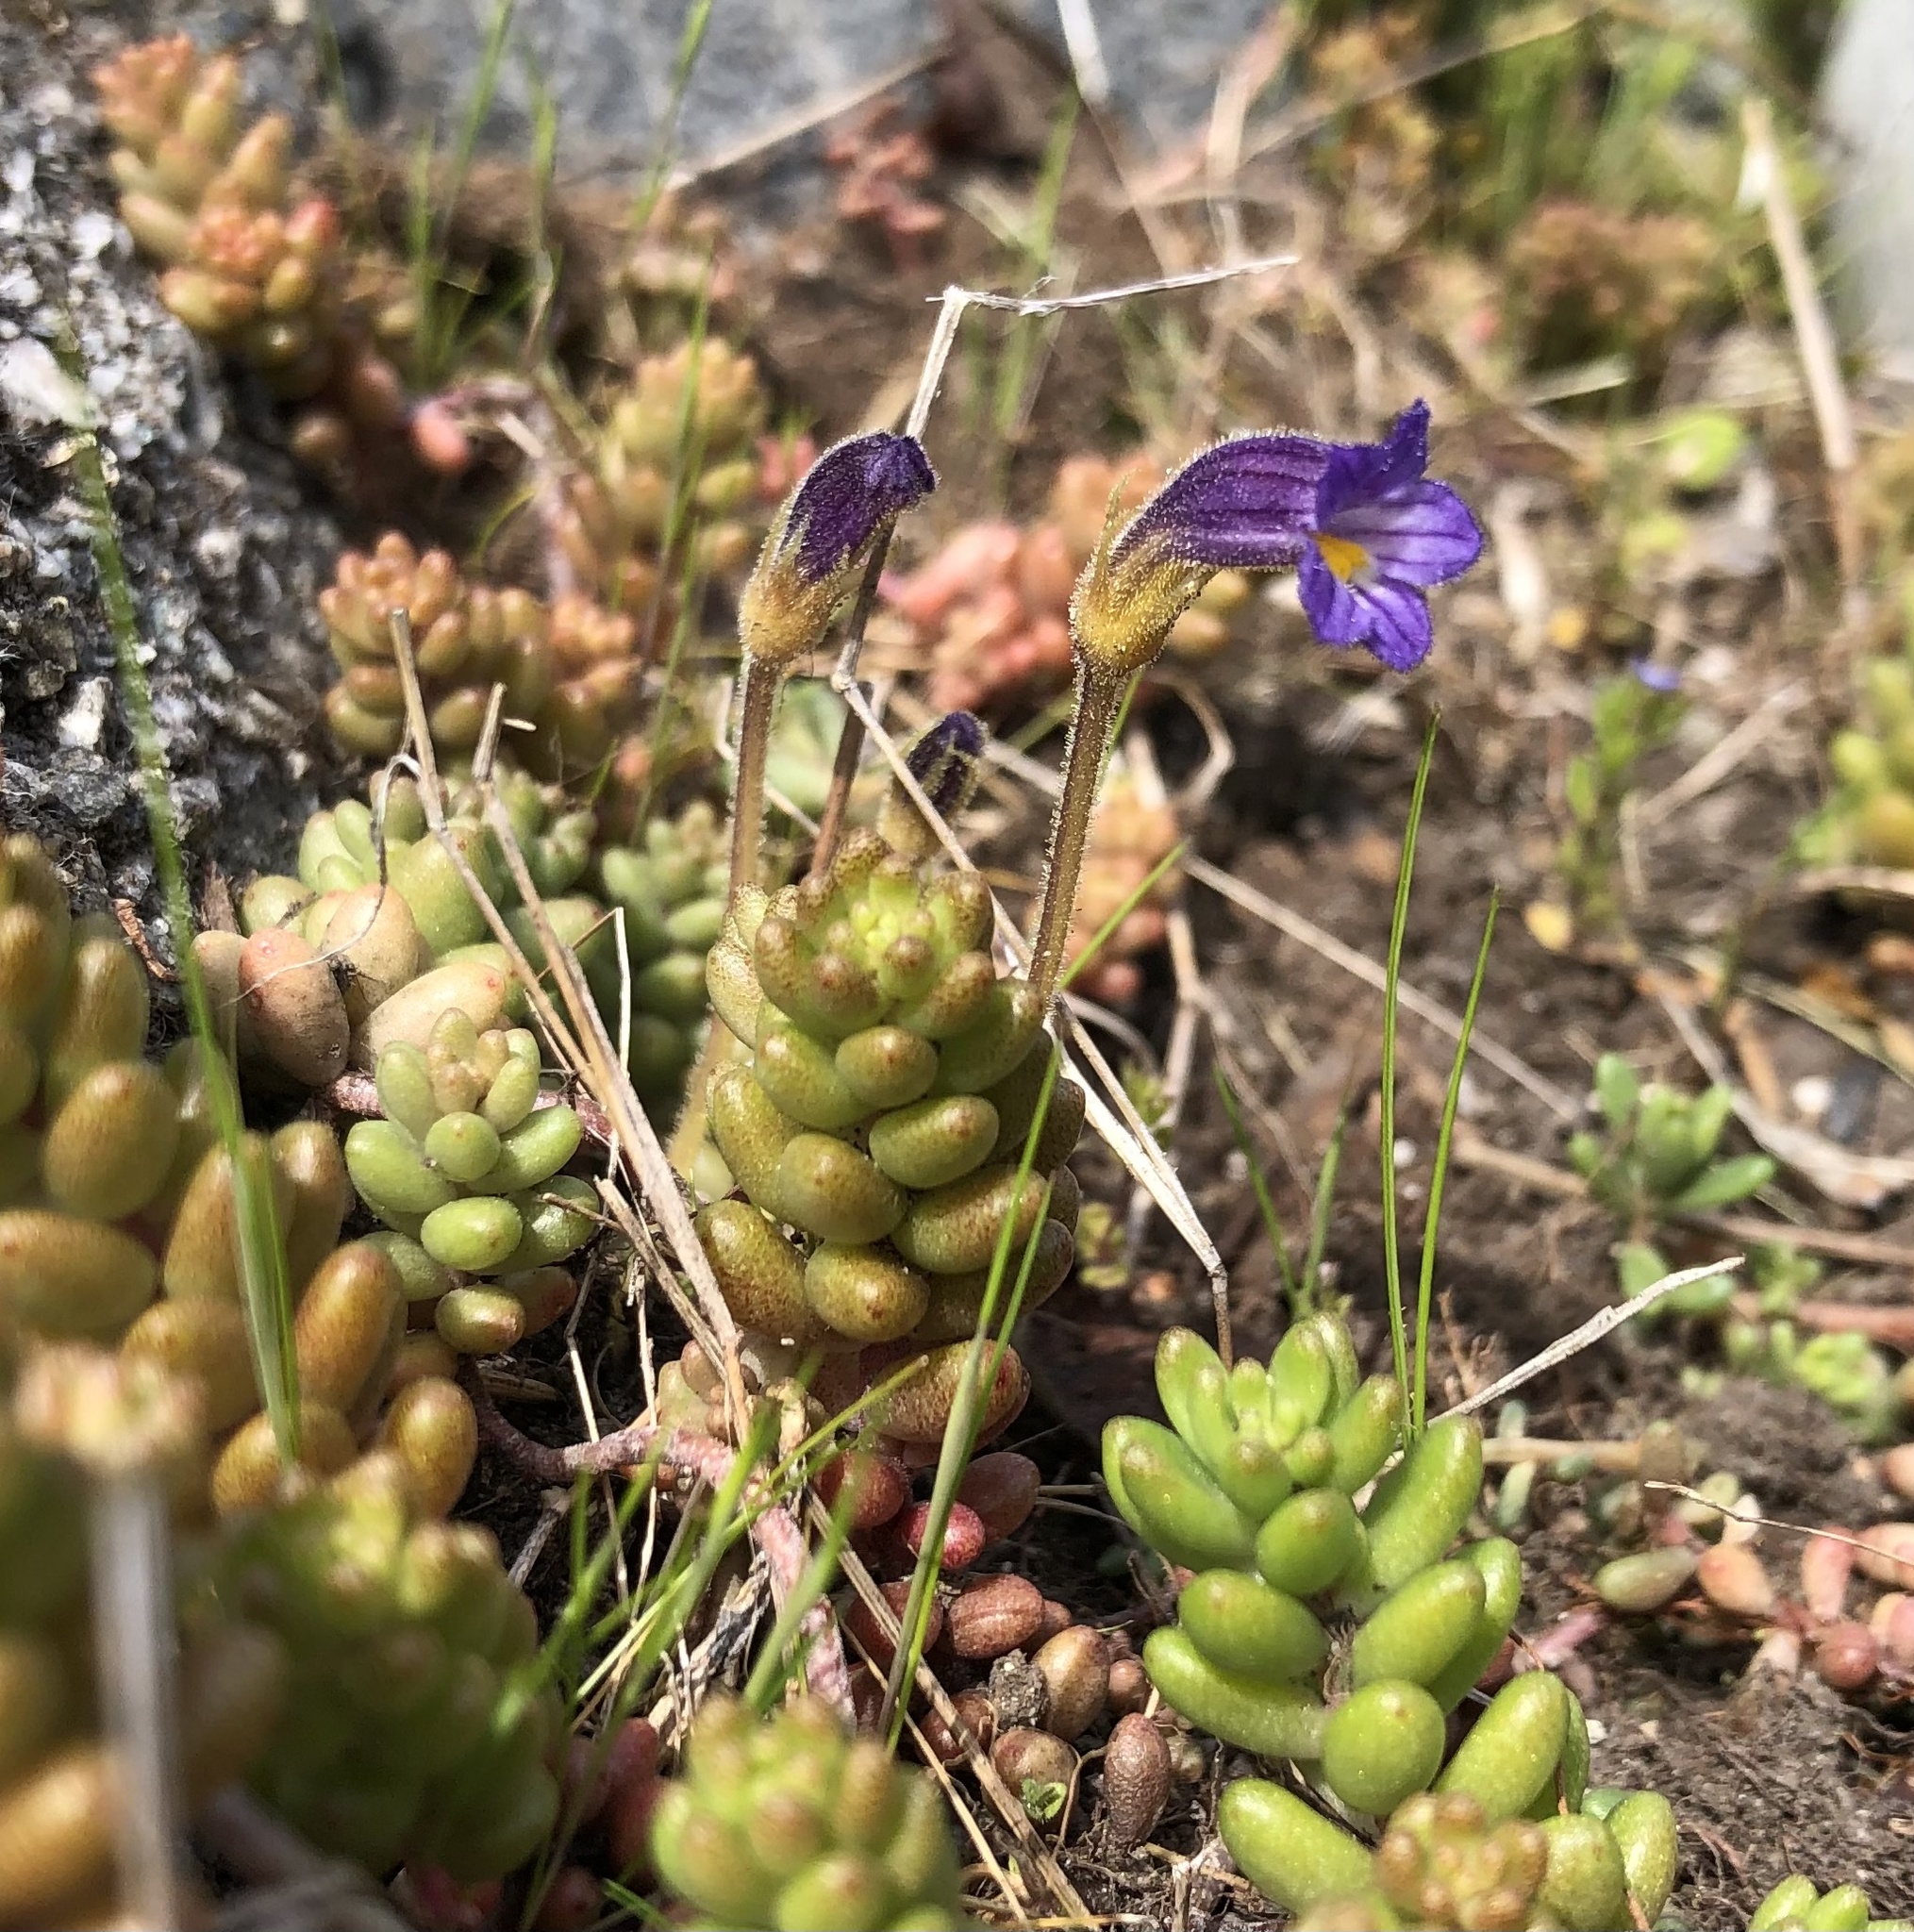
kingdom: Plantae
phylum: Tracheophyta
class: Magnoliopsida
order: Lamiales
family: Orobanchaceae
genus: Aphyllon
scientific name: Aphyllon uniflorum
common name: One-flowered broomrape
